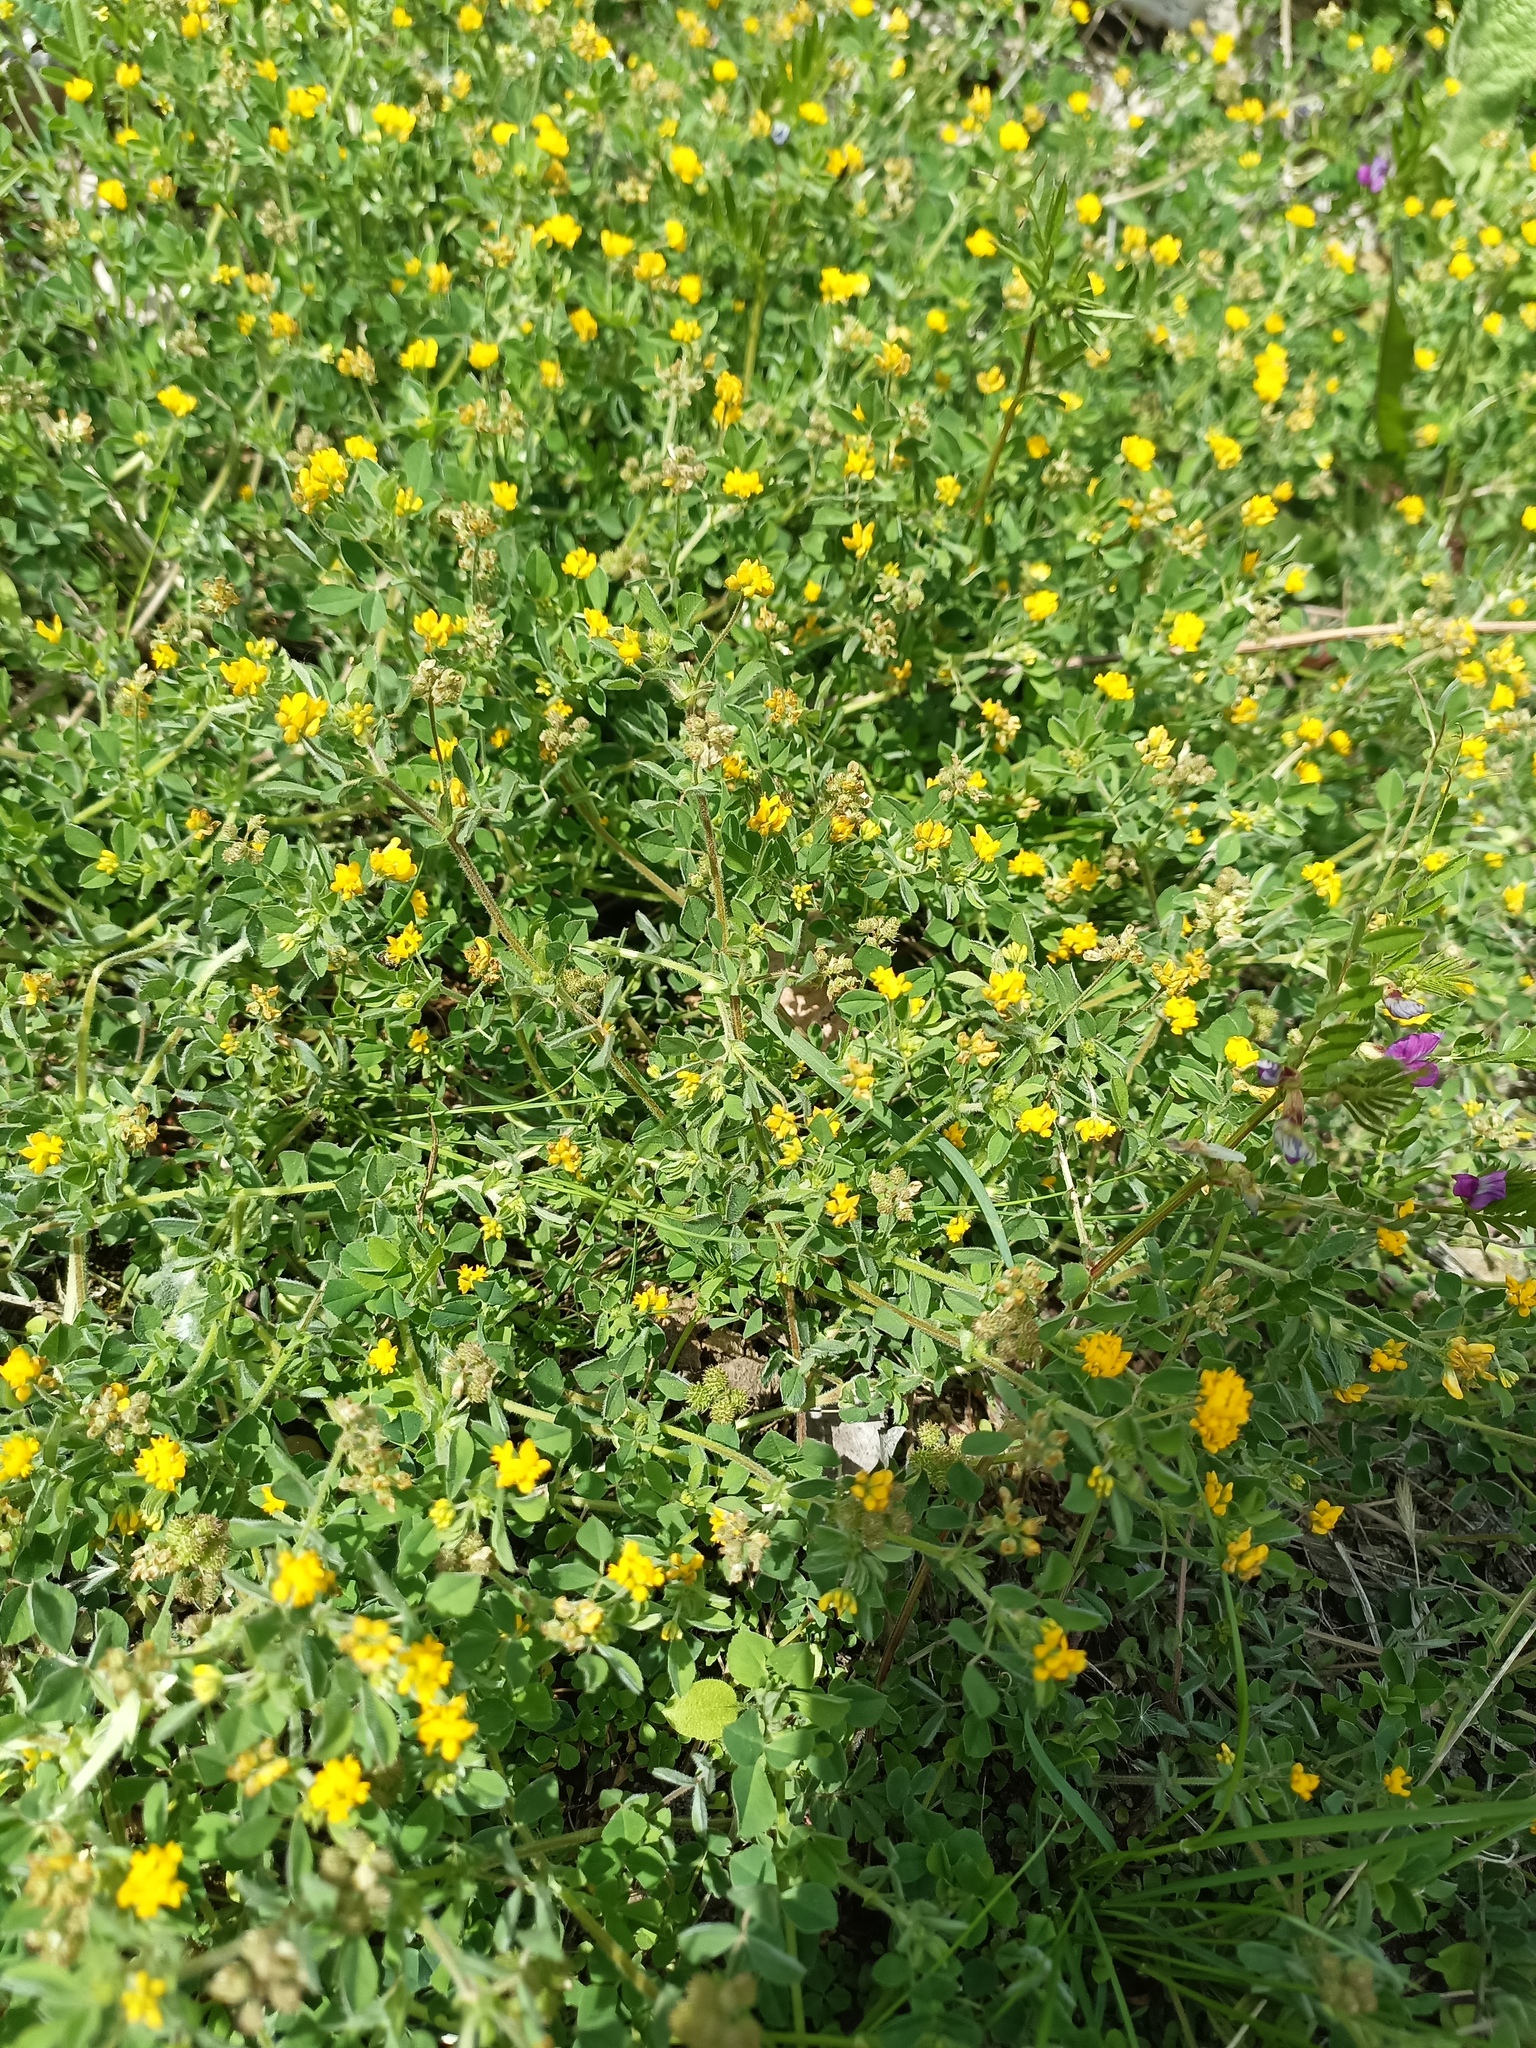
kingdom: Plantae
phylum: Tracheophyta
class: Magnoliopsida
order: Fabales
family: Fabaceae
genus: Medicago
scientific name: Medicago minima
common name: Little bur-clover
